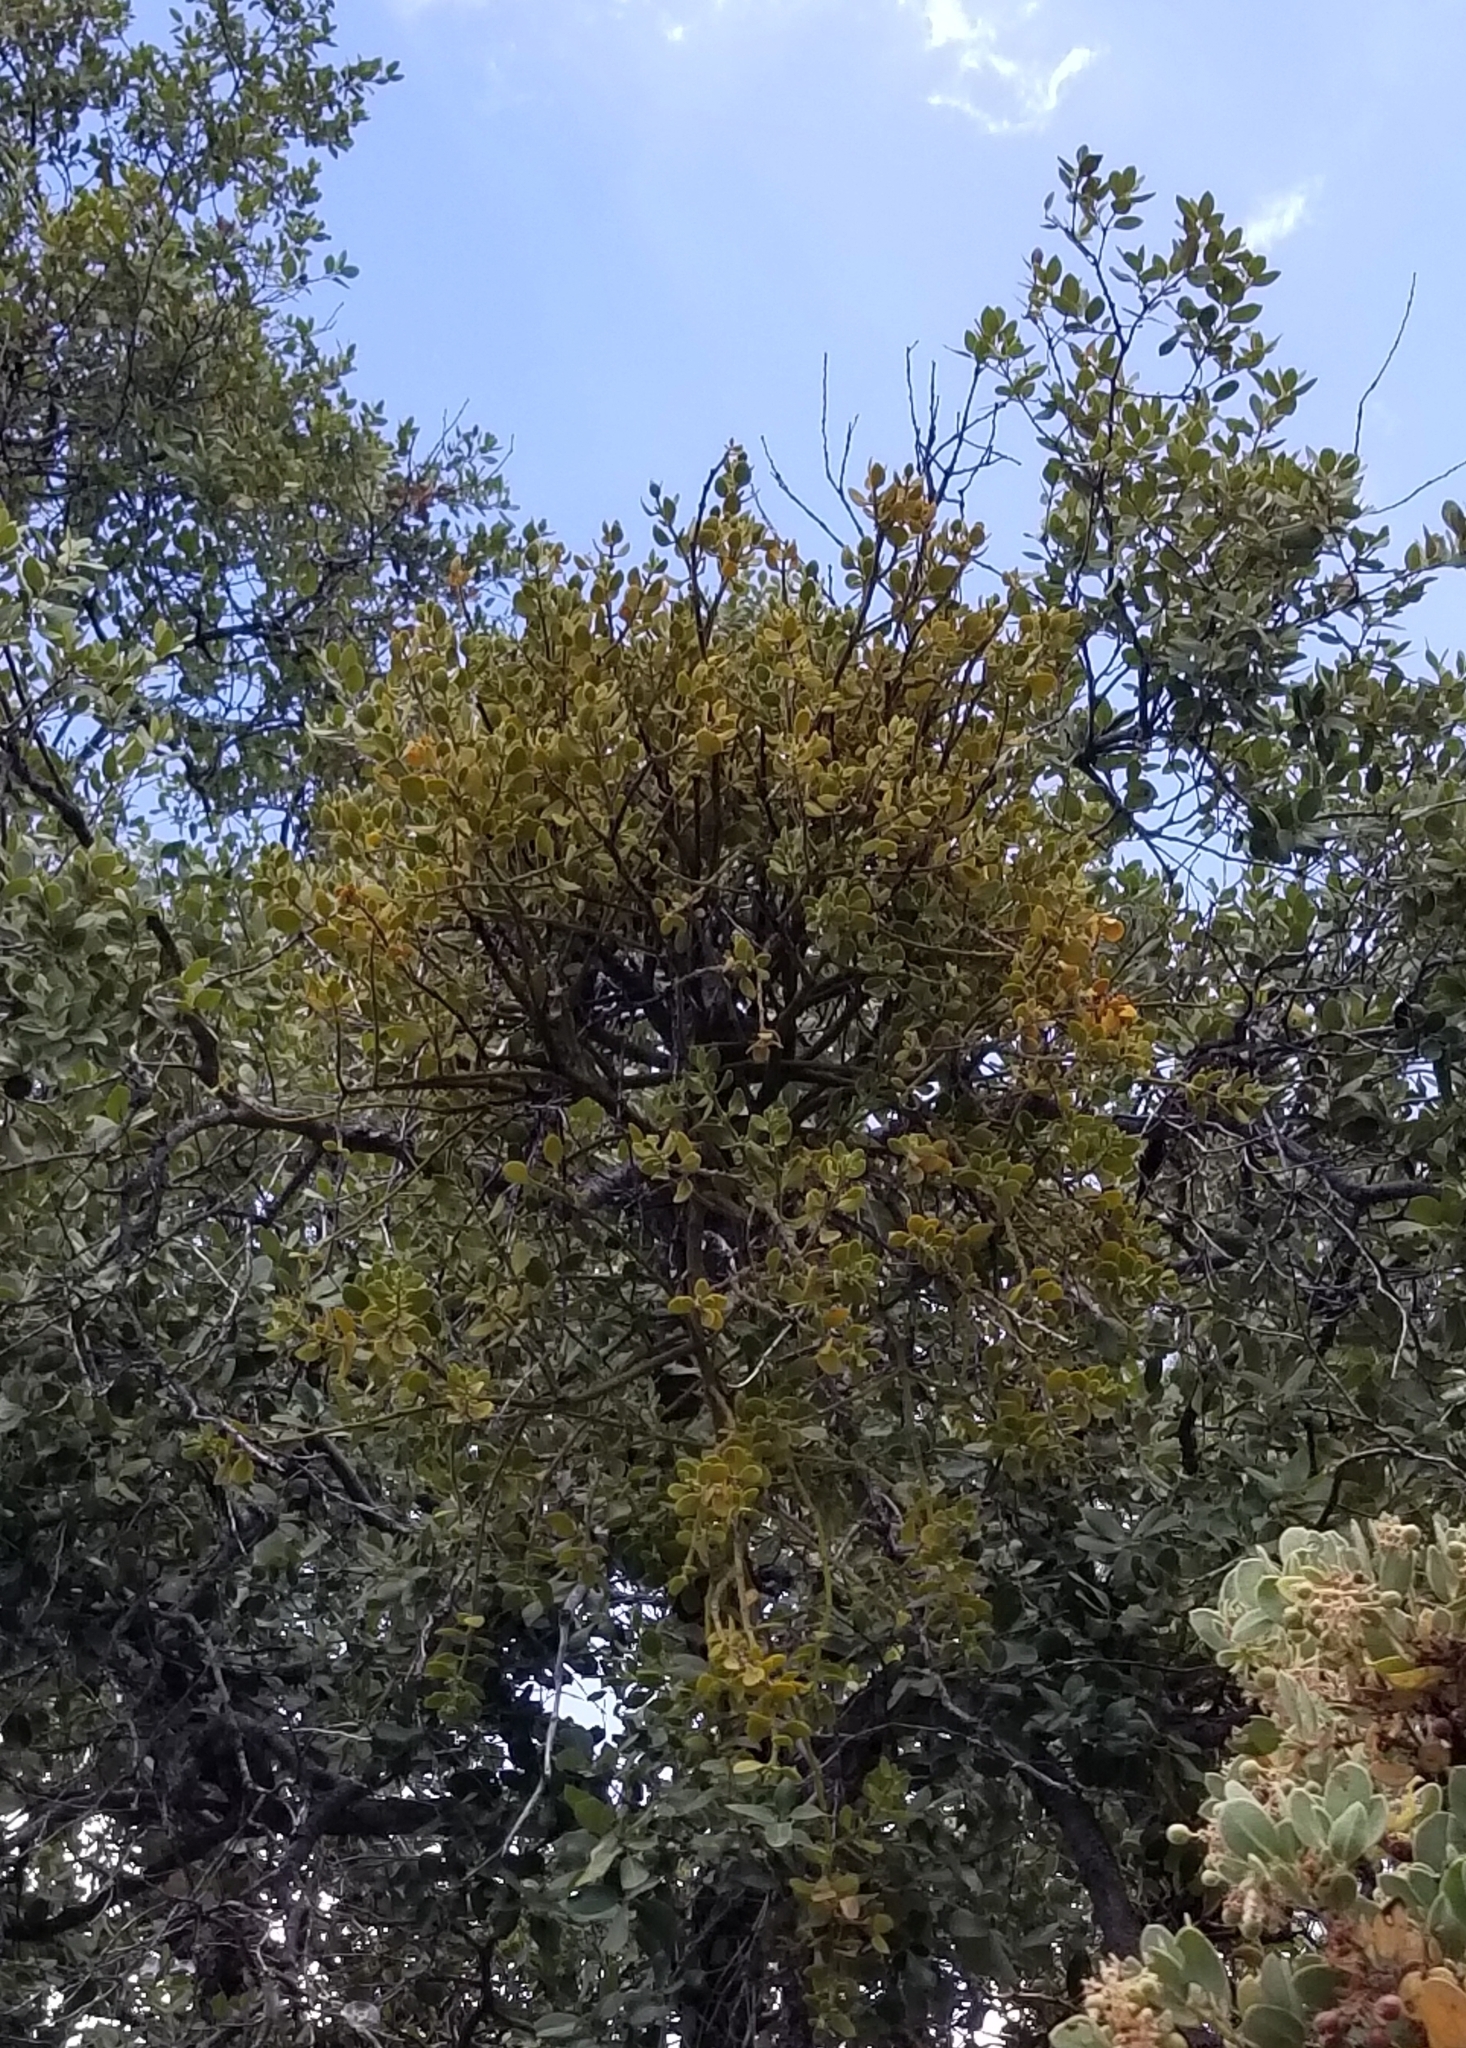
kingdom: Plantae
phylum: Tracheophyta
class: Magnoliopsida
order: Santalales
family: Viscaceae
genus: Phoradendron
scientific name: Phoradendron leucarpum
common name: Pacific mistletoe
